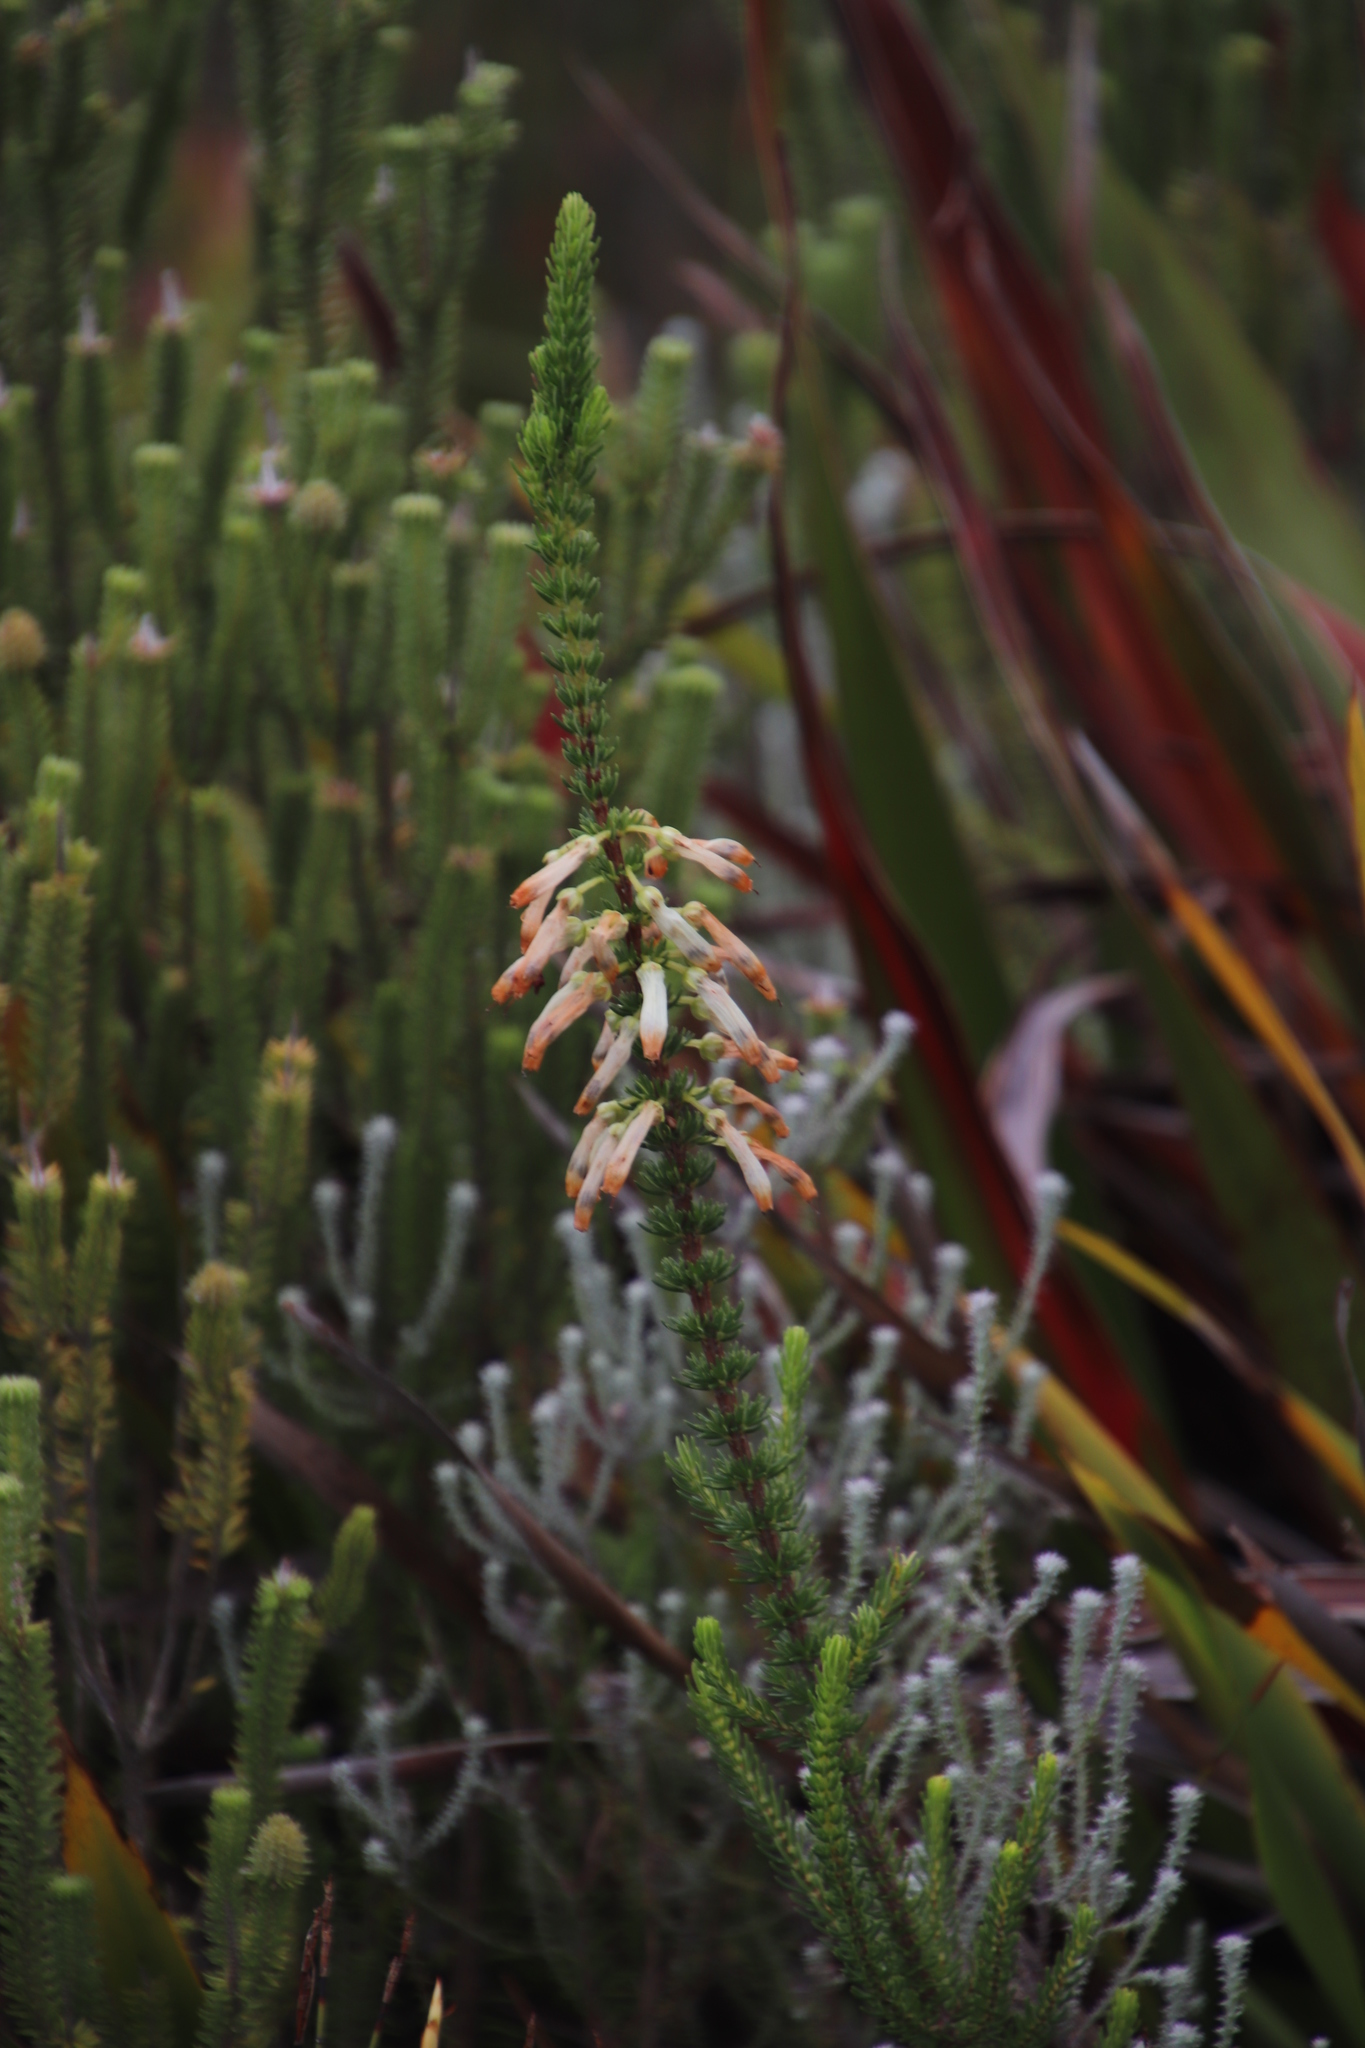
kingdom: Plantae
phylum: Tracheophyta
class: Magnoliopsida
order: Ericales
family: Ericaceae
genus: Erica
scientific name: Erica mammosa
